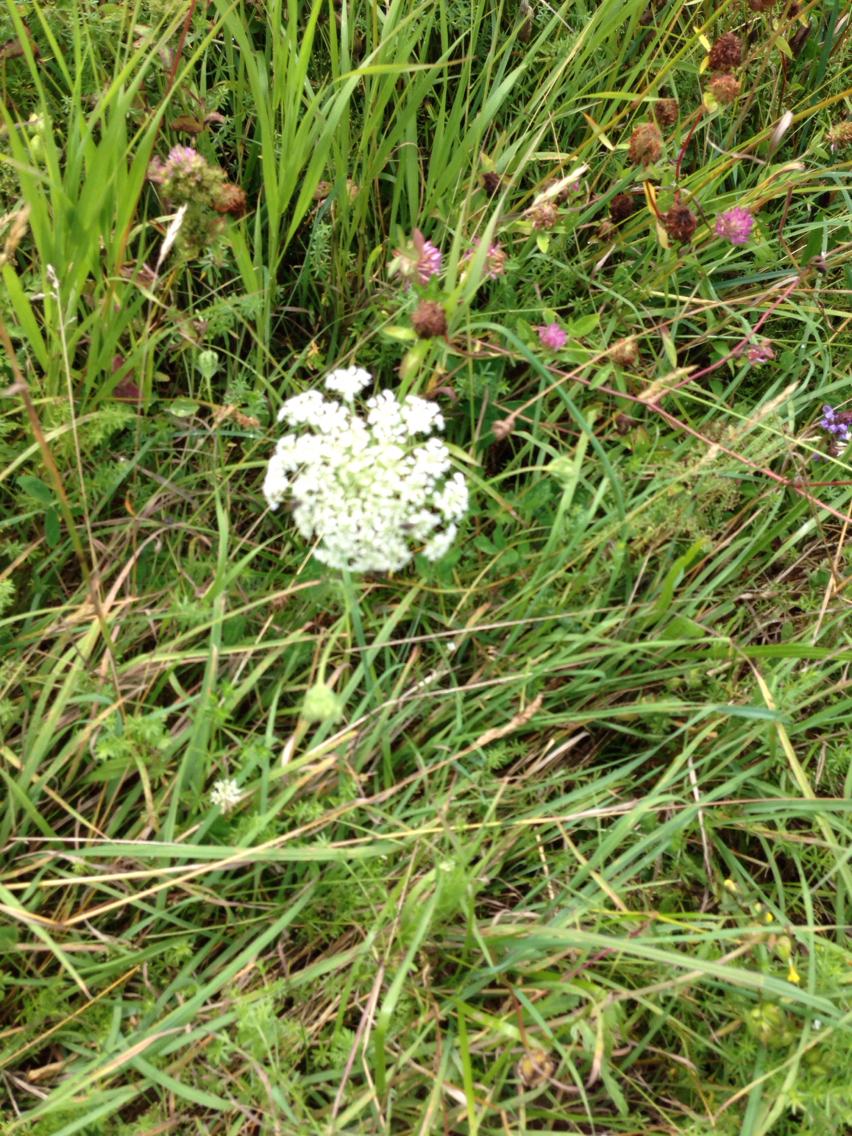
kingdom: Plantae
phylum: Tracheophyta
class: Magnoliopsida
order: Apiales
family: Apiaceae
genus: Daucus
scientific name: Daucus carota
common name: Wild carrot
